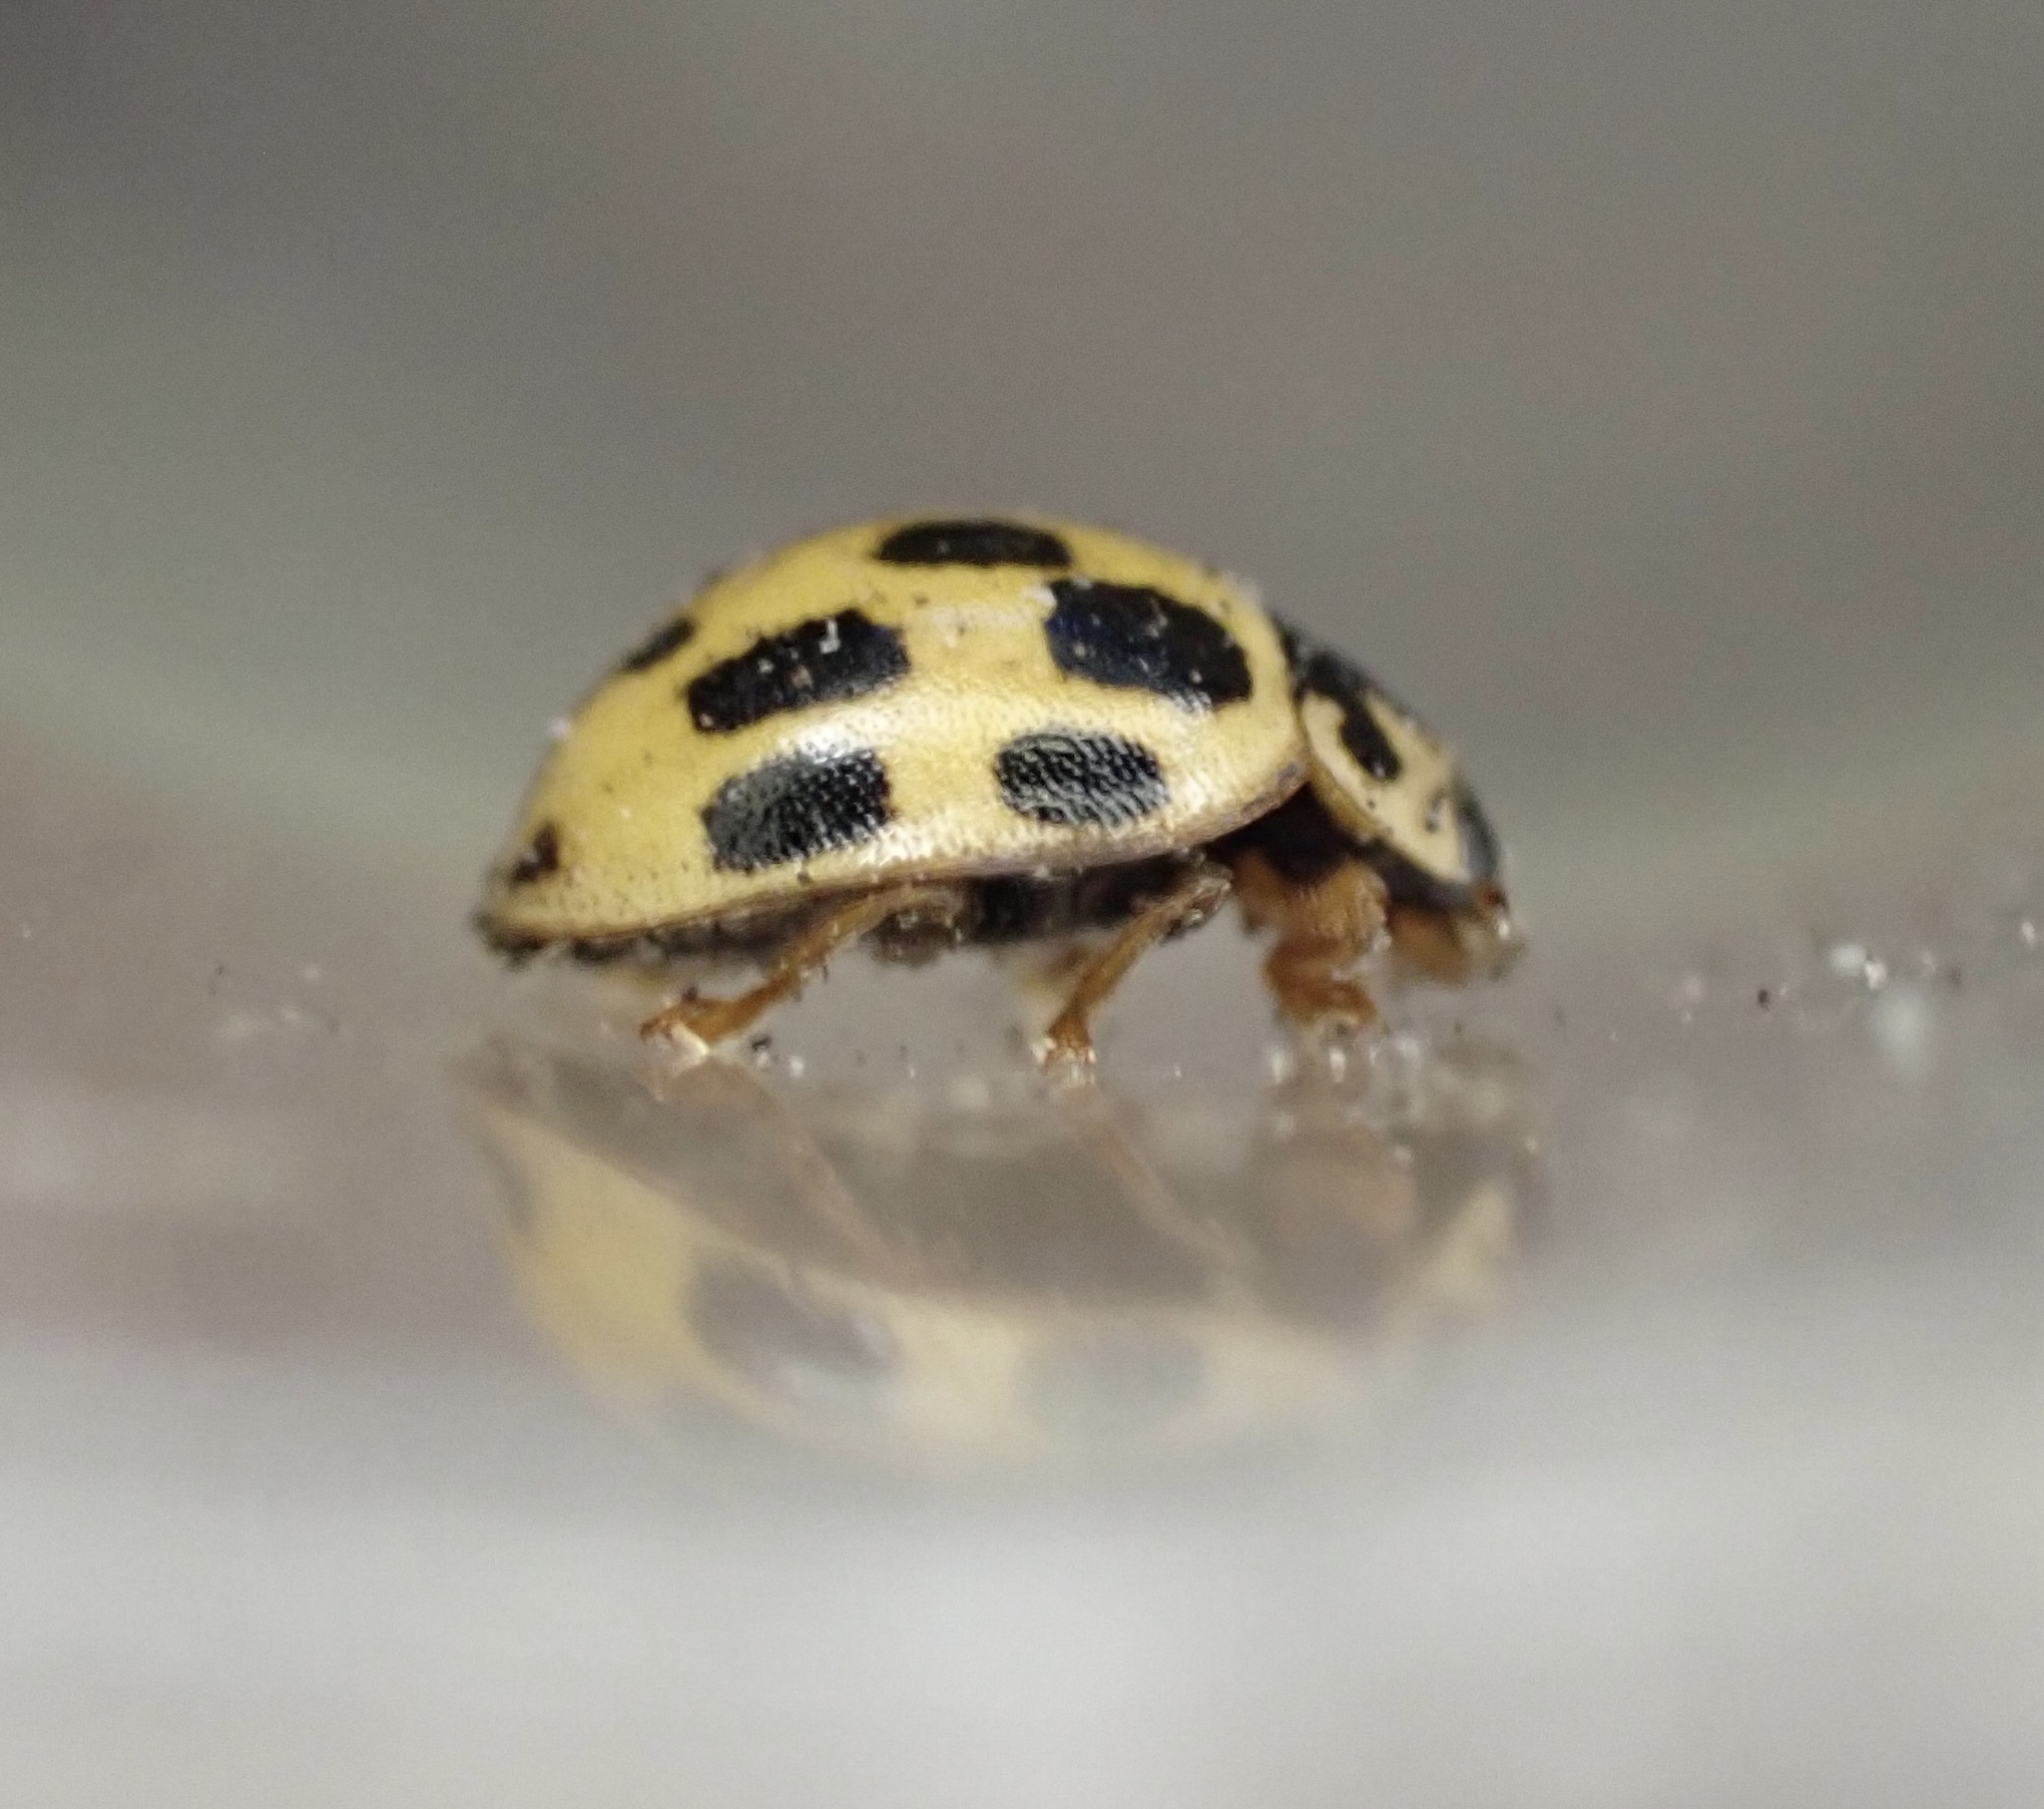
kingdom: Animalia
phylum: Arthropoda
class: Insecta
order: Coleoptera
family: Coccinellidae
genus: Propylaea
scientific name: Propylaea quatuordecimpunctata
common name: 14-spotted ladybird beetle
